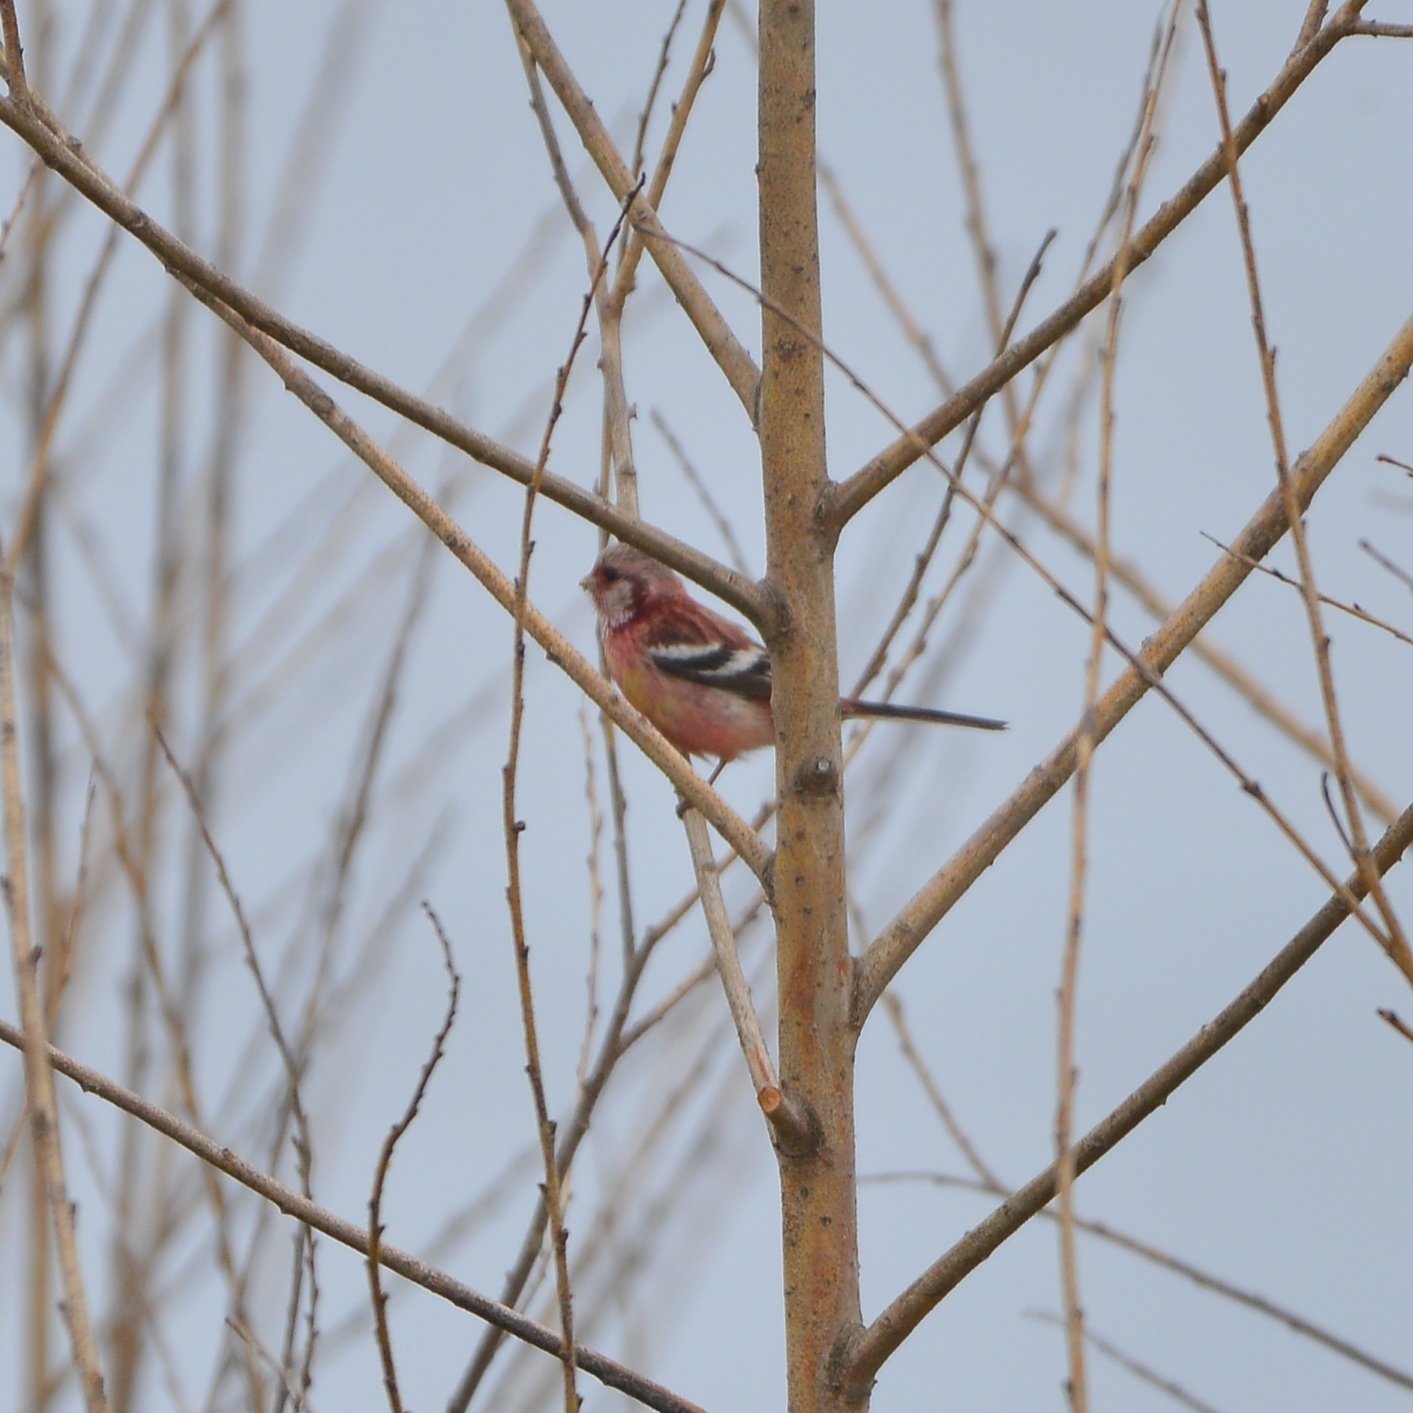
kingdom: Animalia
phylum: Chordata
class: Aves
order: Passeriformes
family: Fringillidae
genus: Carpodacus
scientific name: Carpodacus sibiricus
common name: Long-tailed rosefinch
